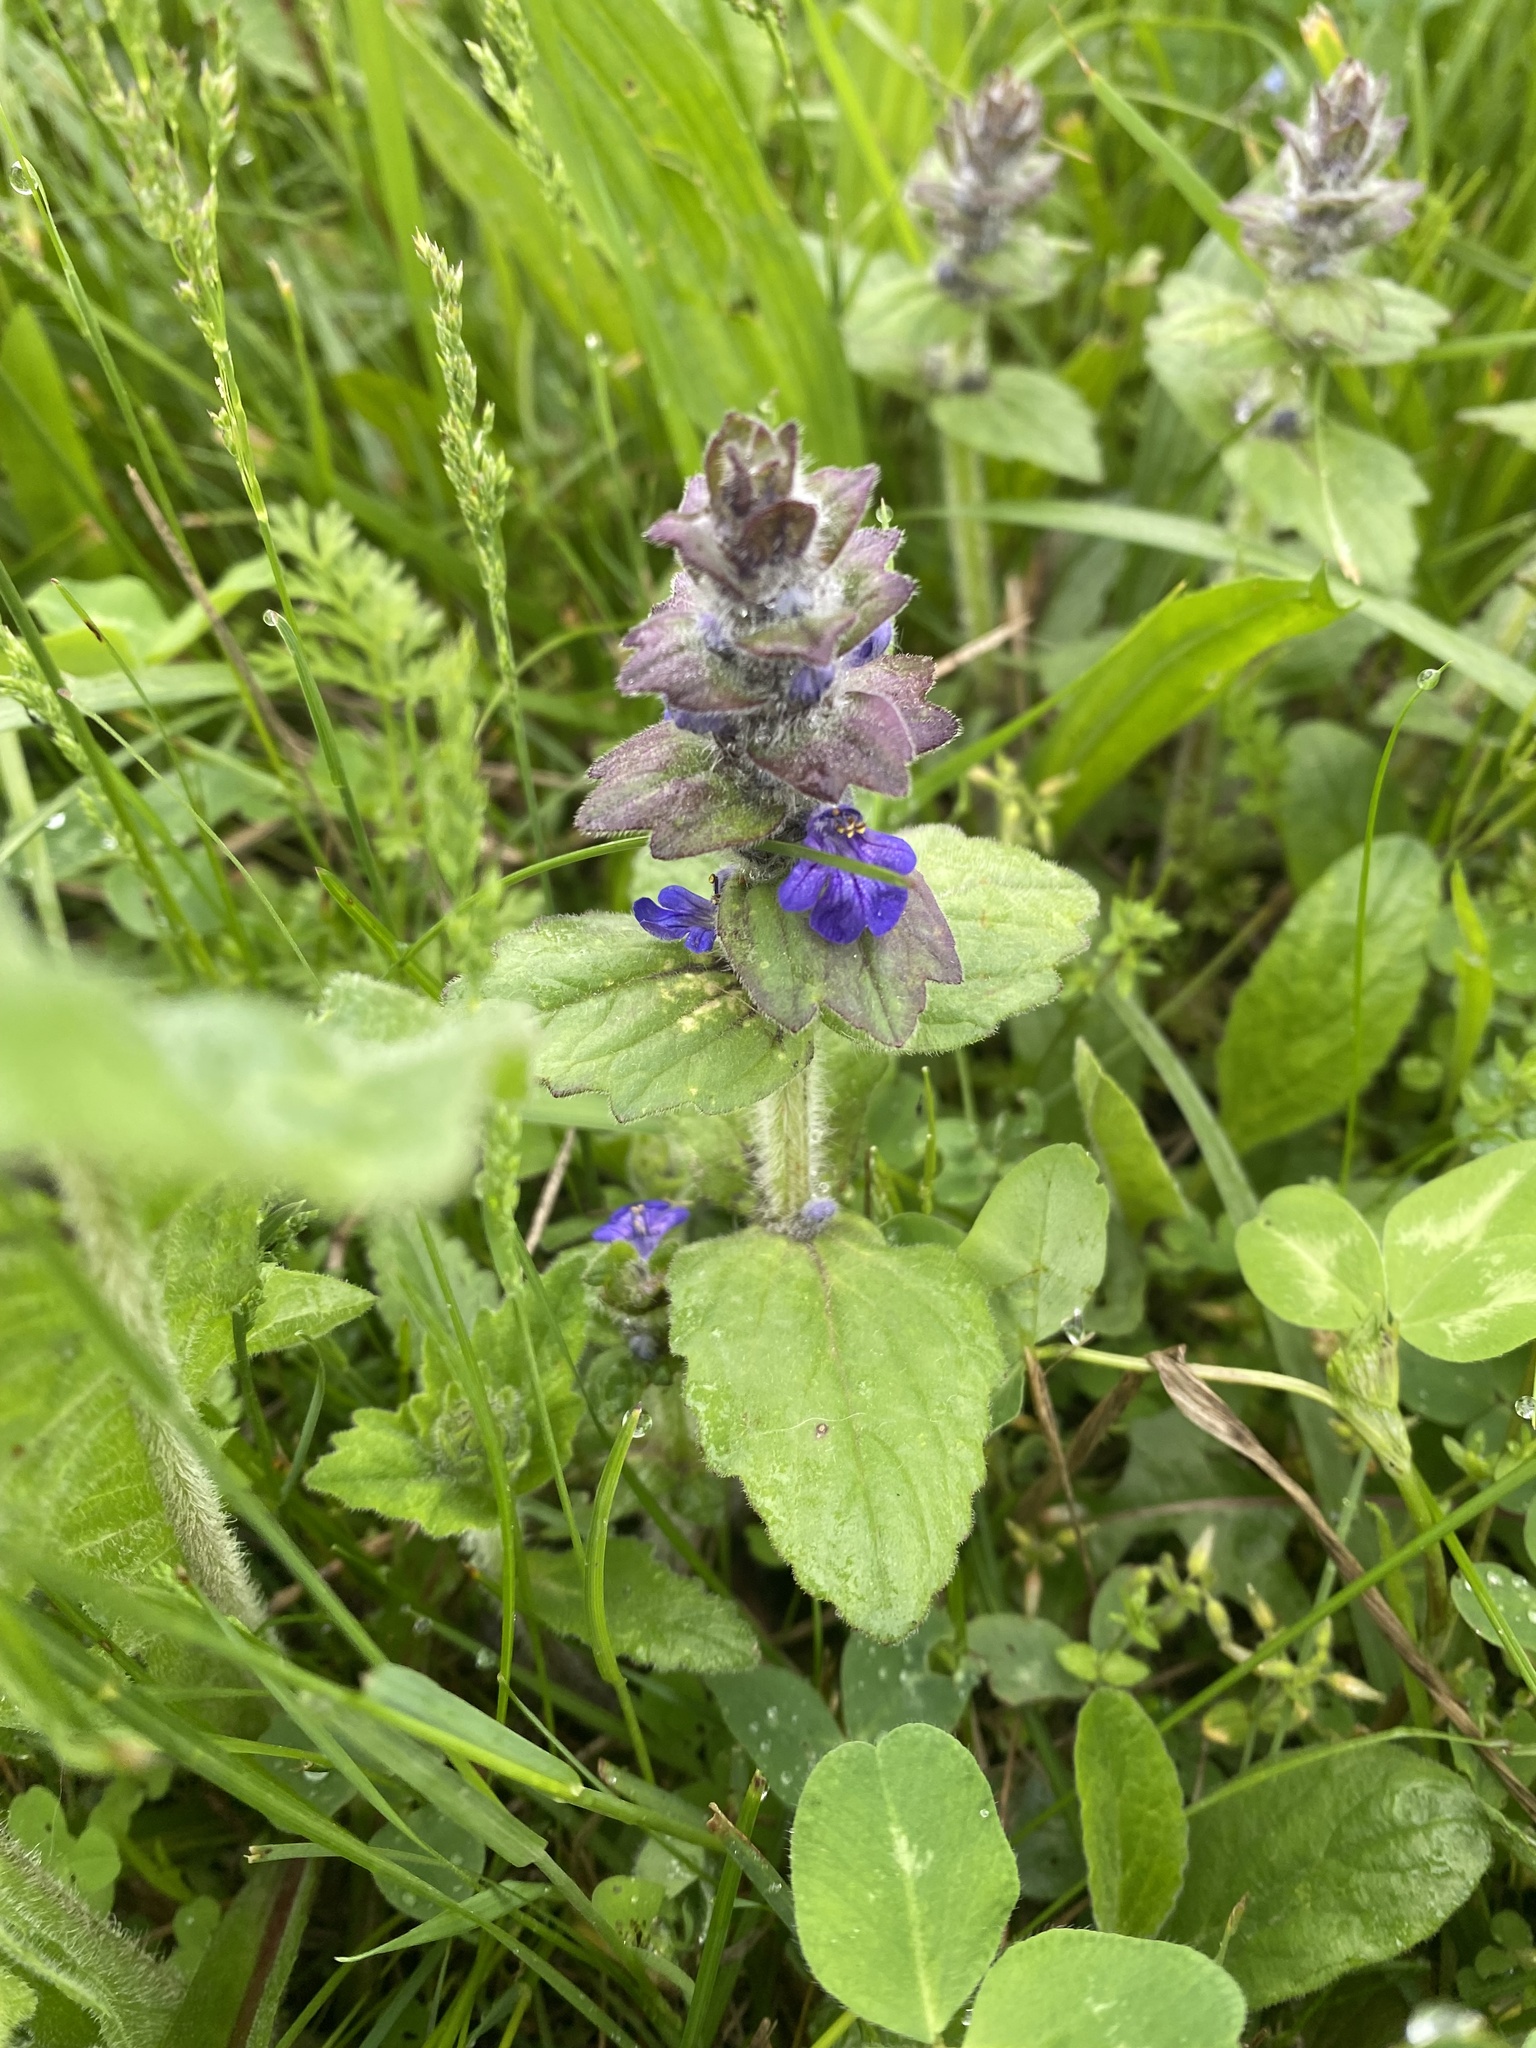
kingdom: Plantae
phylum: Tracheophyta
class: Magnoliopsida
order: Lamiales
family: Lamiaceae
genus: Ajuga
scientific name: Ajuga genevensis
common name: Blue bugle
